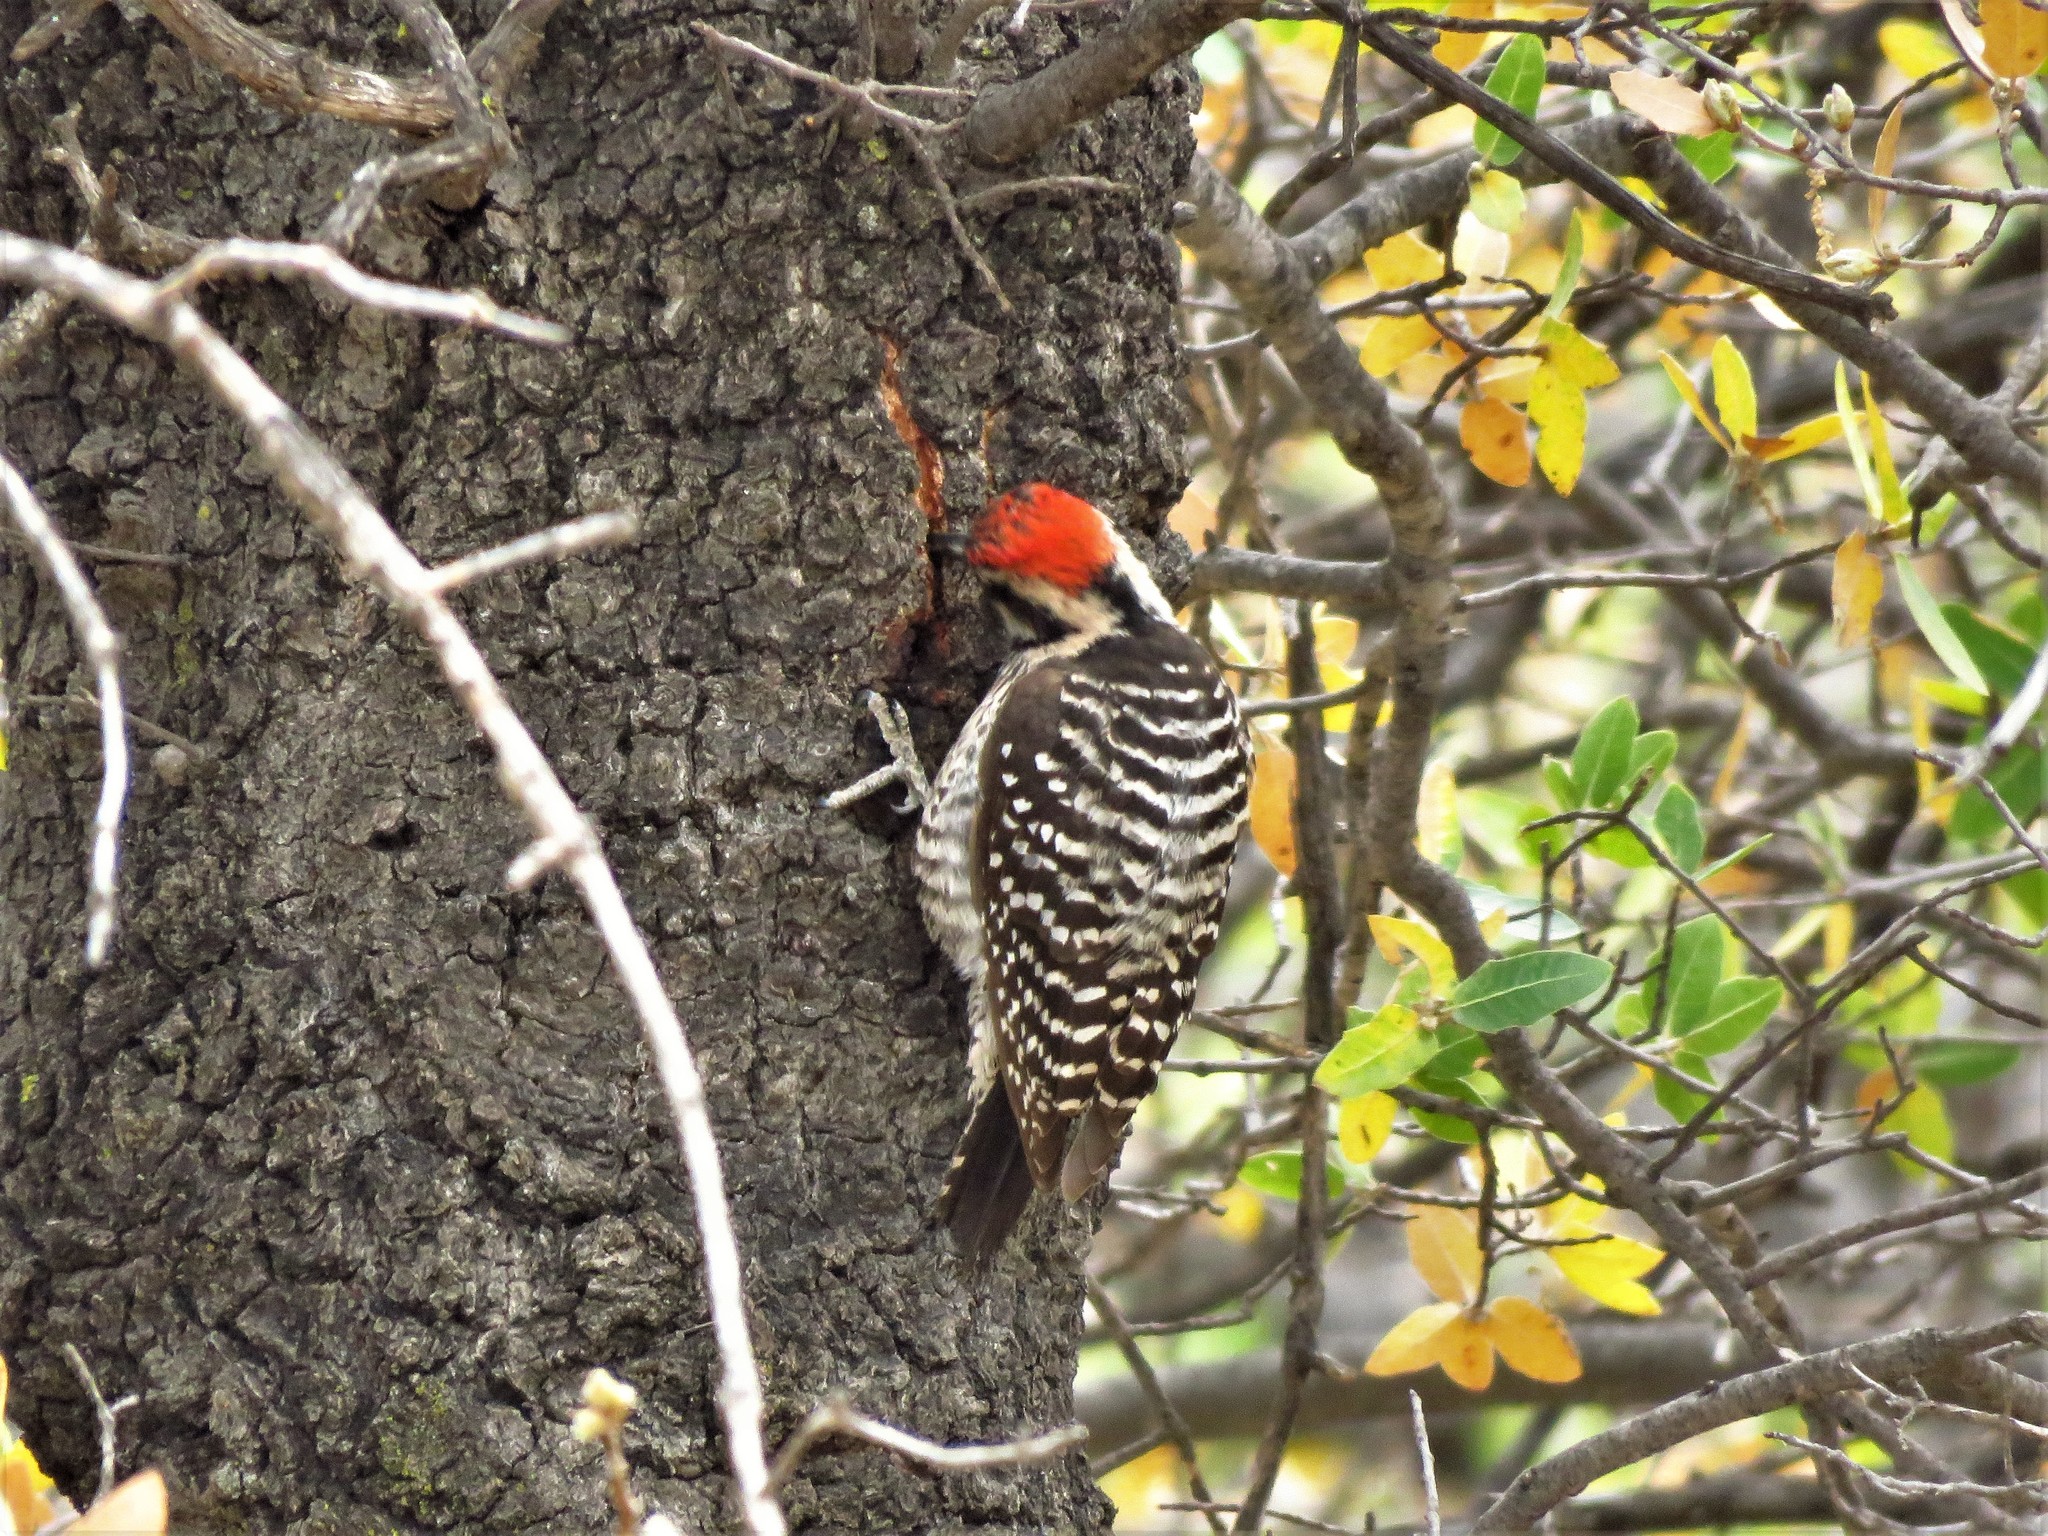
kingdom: Animalia
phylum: Chordata
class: Aves
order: Piciformes
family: Picidae
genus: Dryobates
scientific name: Dryobates scalaris
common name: Ladder-backed woodpecker
